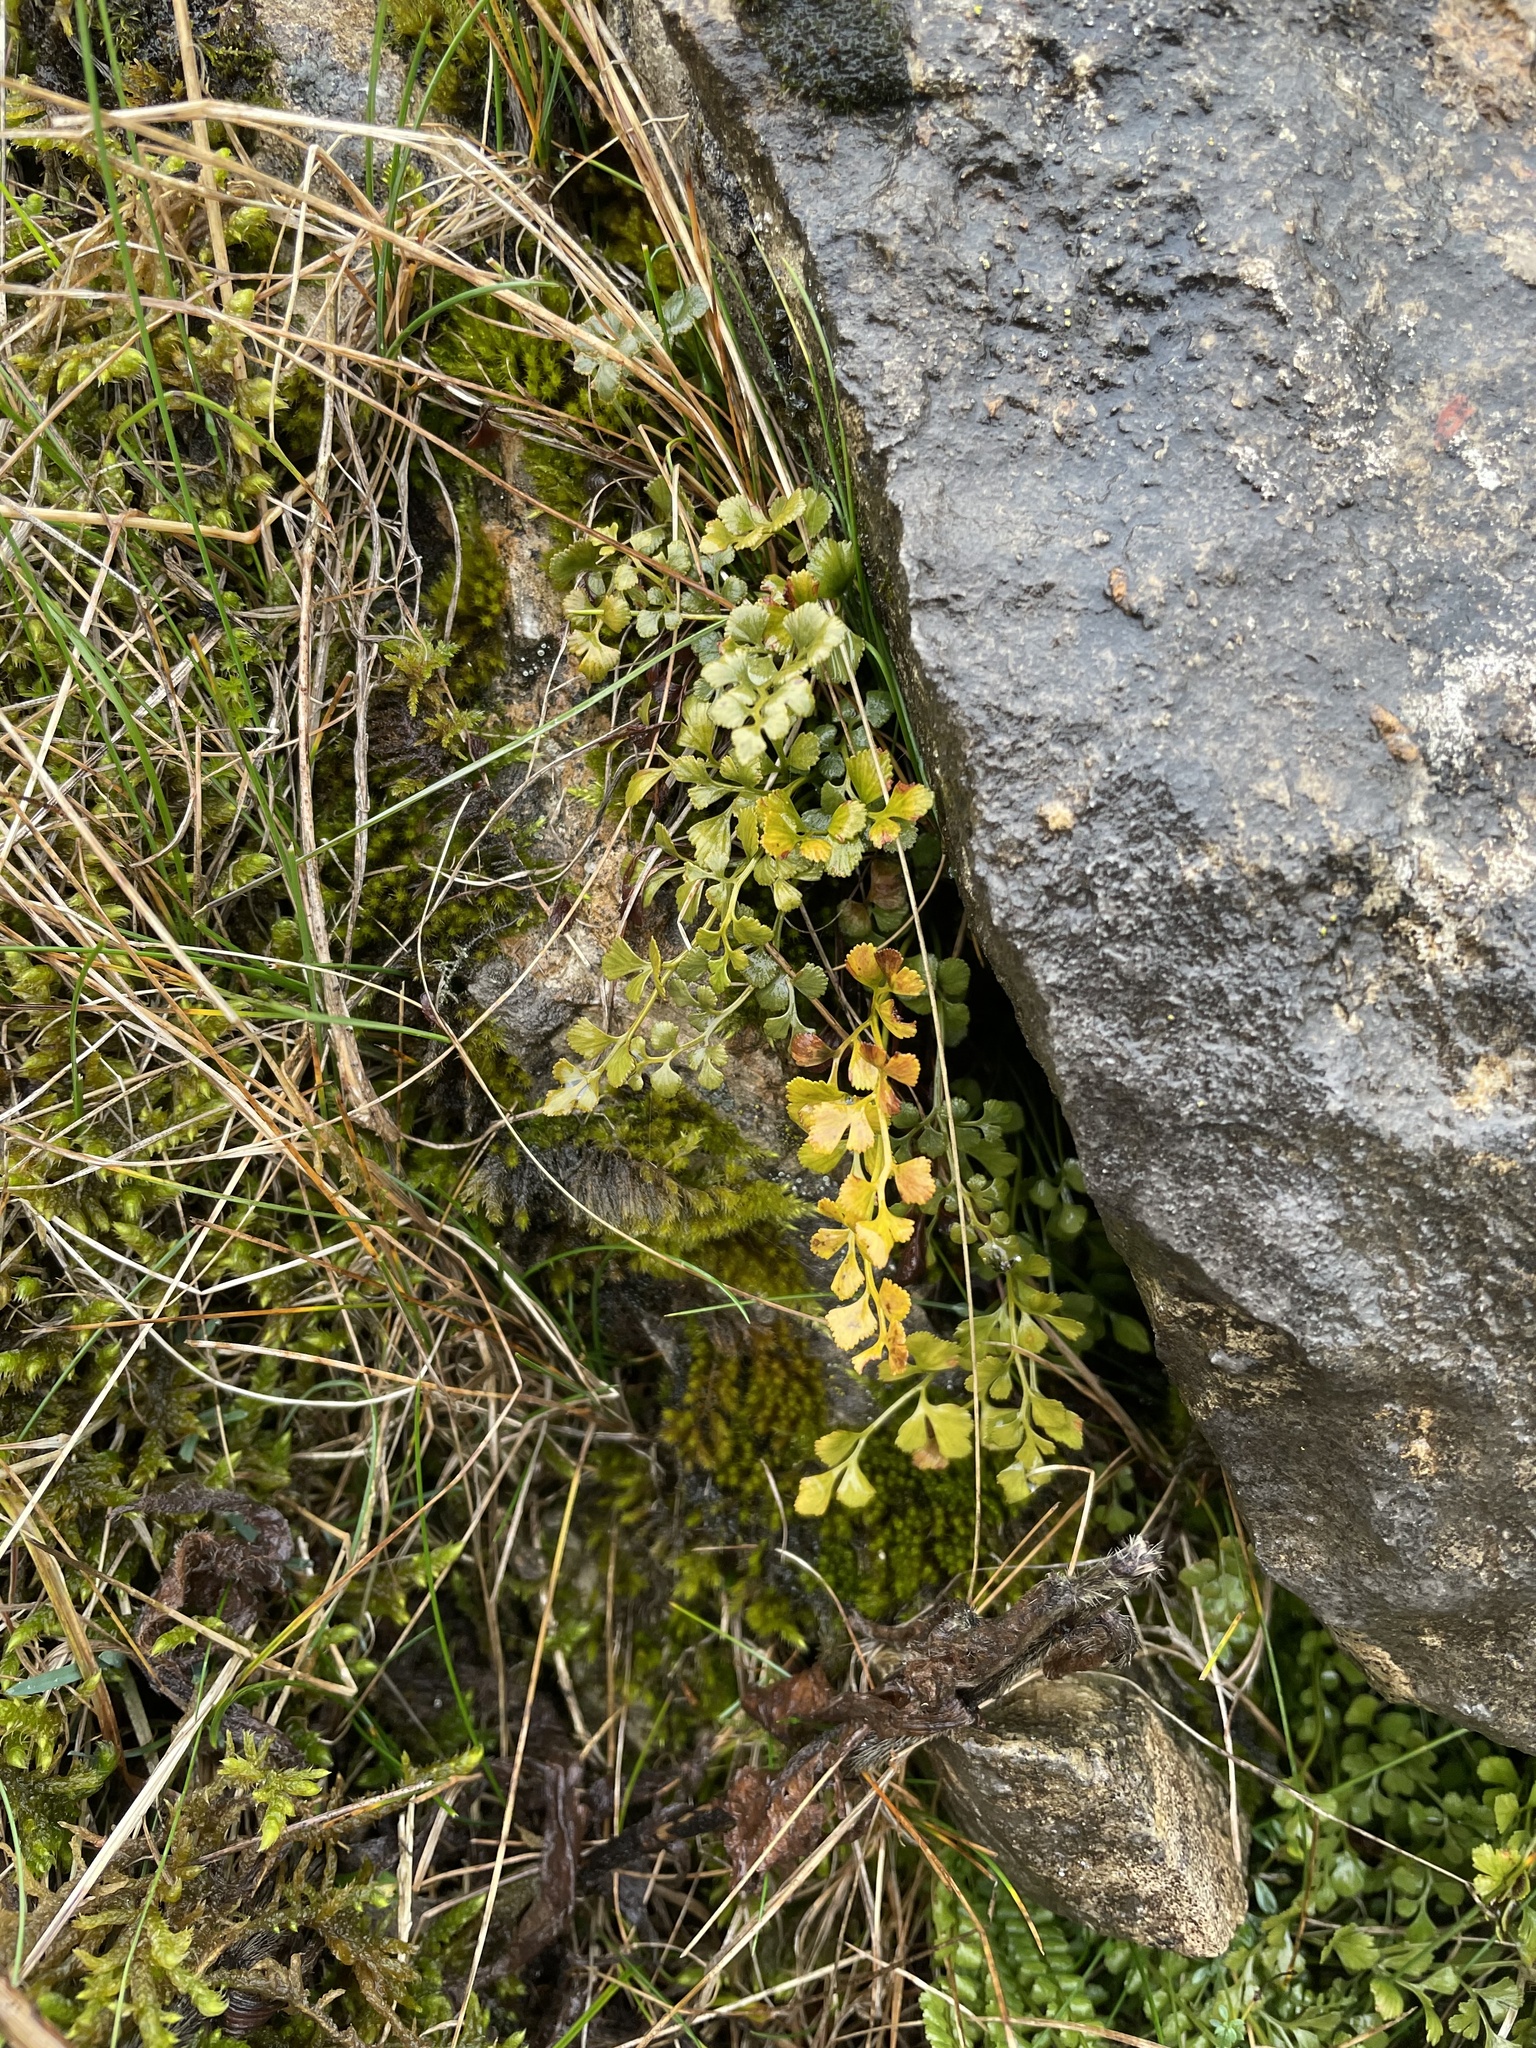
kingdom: Plantae
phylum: Tracheophyta
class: Polypodiopsida
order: Polypodiales
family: Aspleniaceae
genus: Asplenium
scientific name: Asplenium ruta-muraria
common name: Wall-rue
